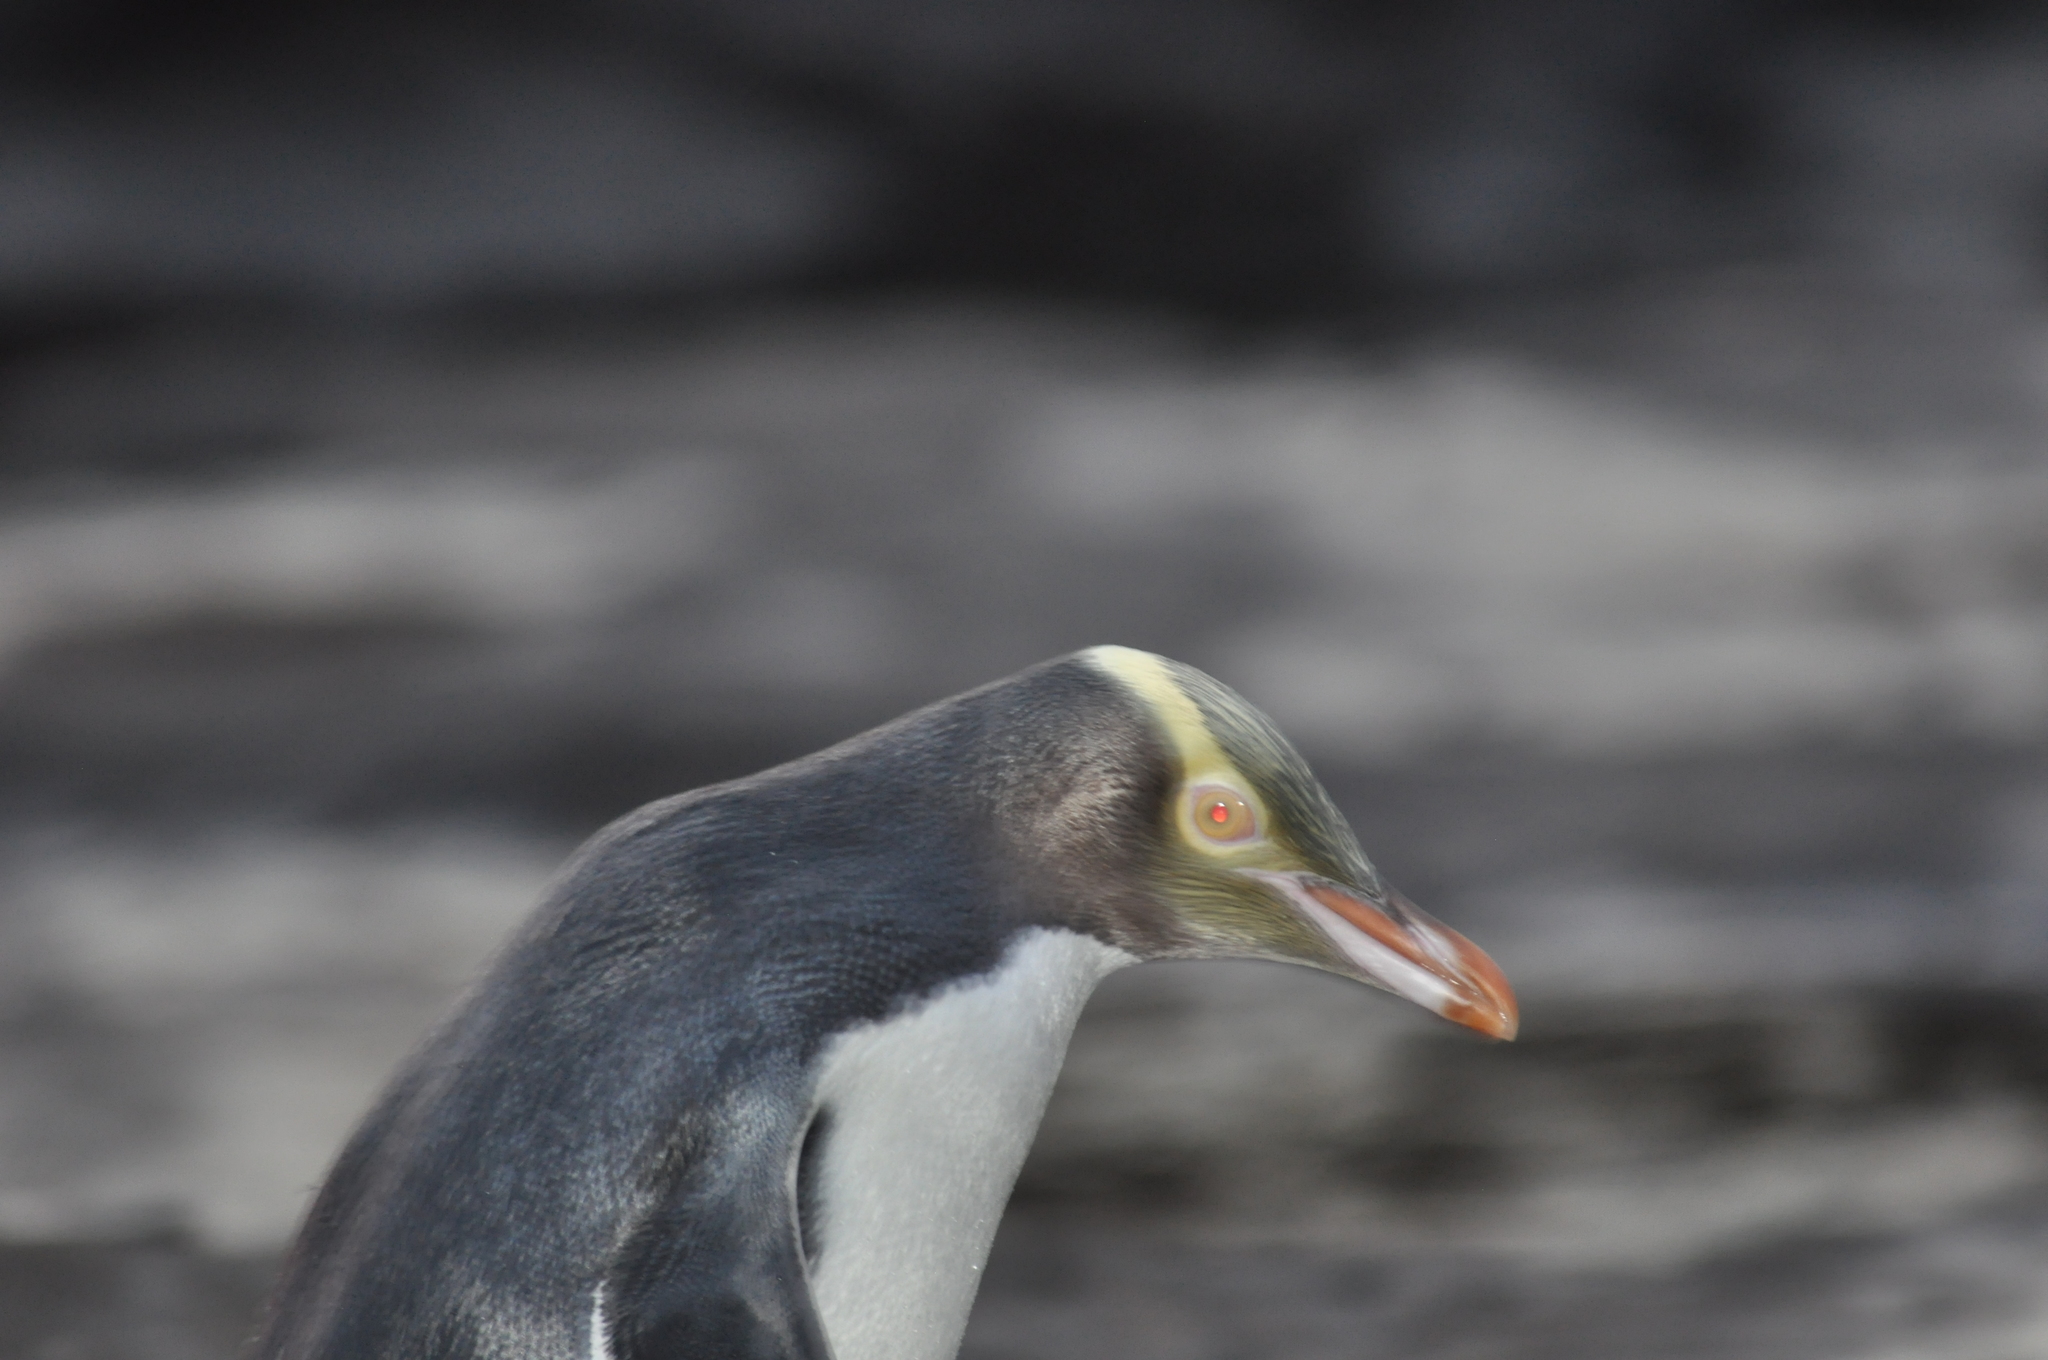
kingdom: Animalia
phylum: Chordata
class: Aves
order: Sphenisciformes
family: Spheniscidae
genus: Megadyptes
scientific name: Megadyptes antipodes
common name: Yellow-eyed penguin
